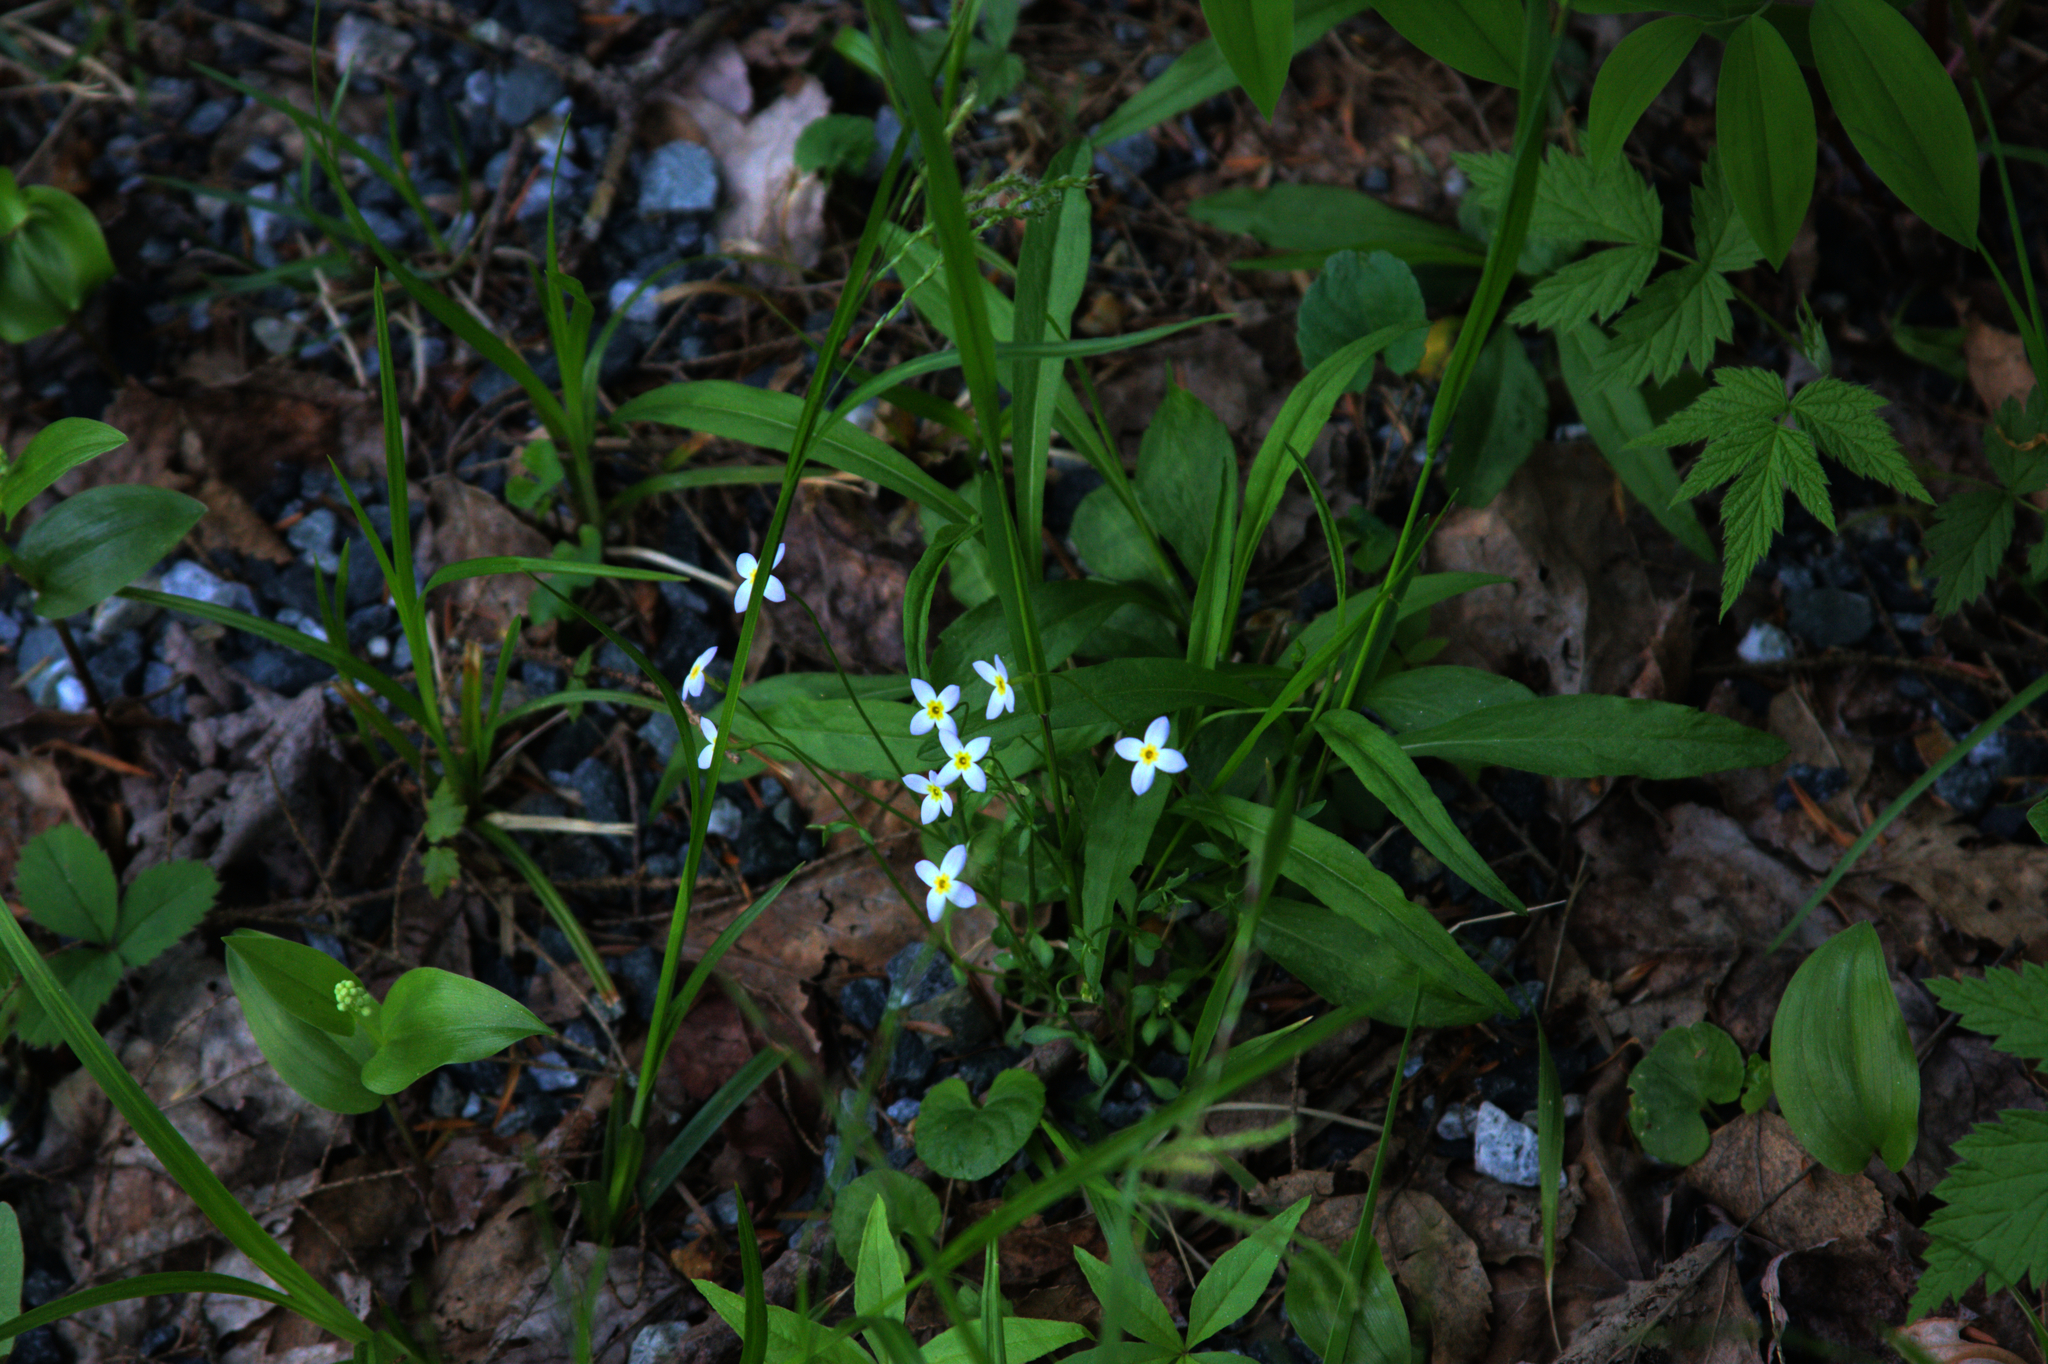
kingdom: Plantae
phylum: Tracheophyta
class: Liliopsida
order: Asparagales
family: Asparagaceae
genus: Maianthemum
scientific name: Maianthemum canadense
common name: False lily-of-the-valley
